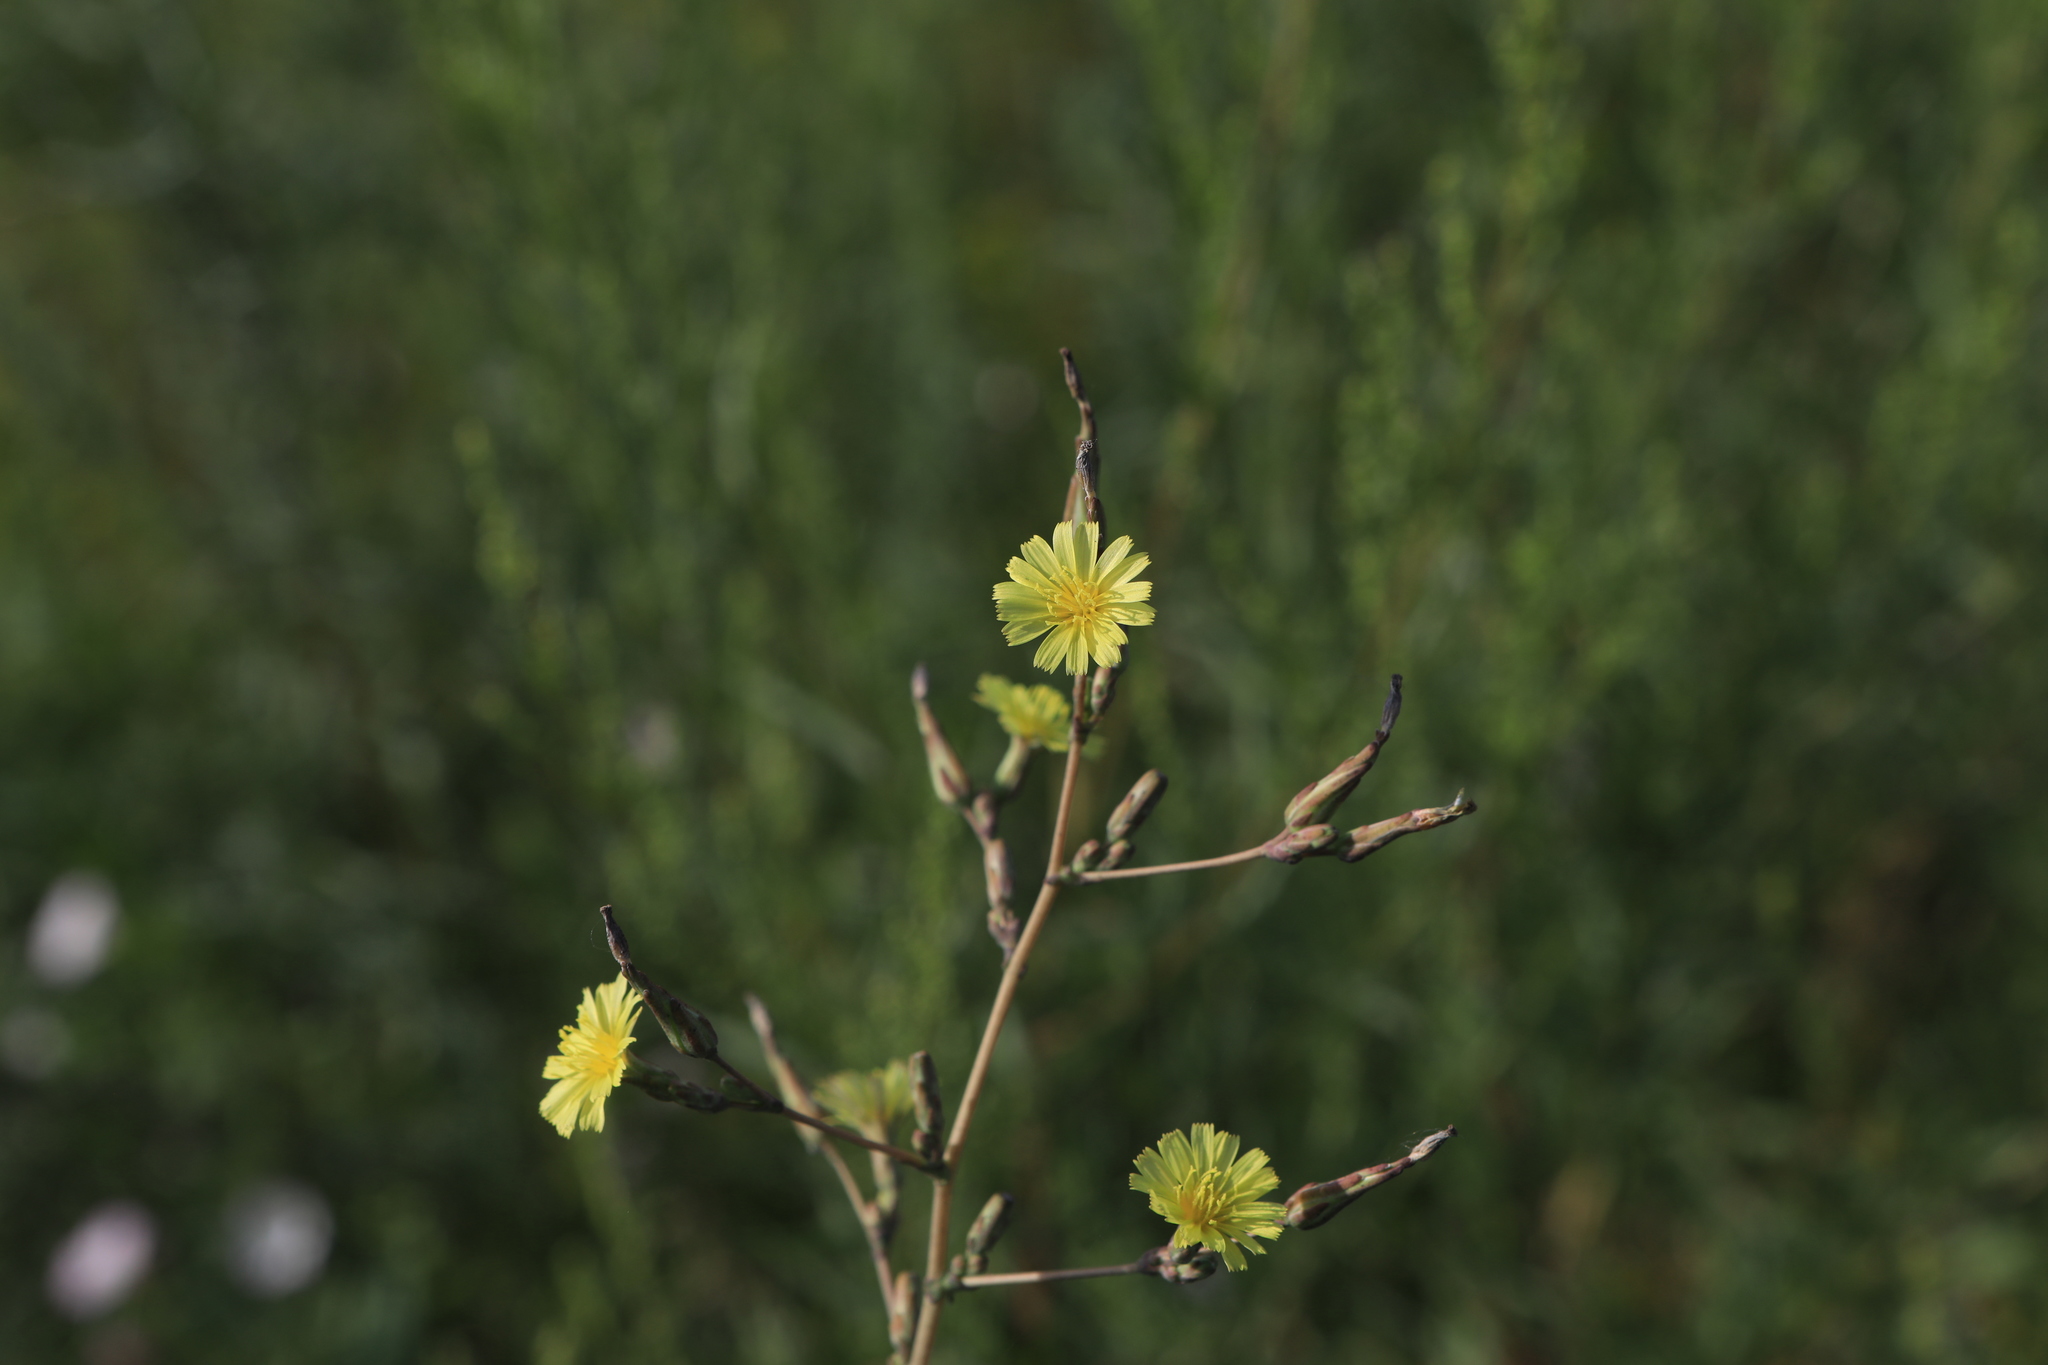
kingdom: Plantae
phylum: Tracheophyta
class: Magnoliopsida
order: Asterales
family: Asteraceae
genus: Lactuca
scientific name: Lactuca serriola
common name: Prickly lettuce
